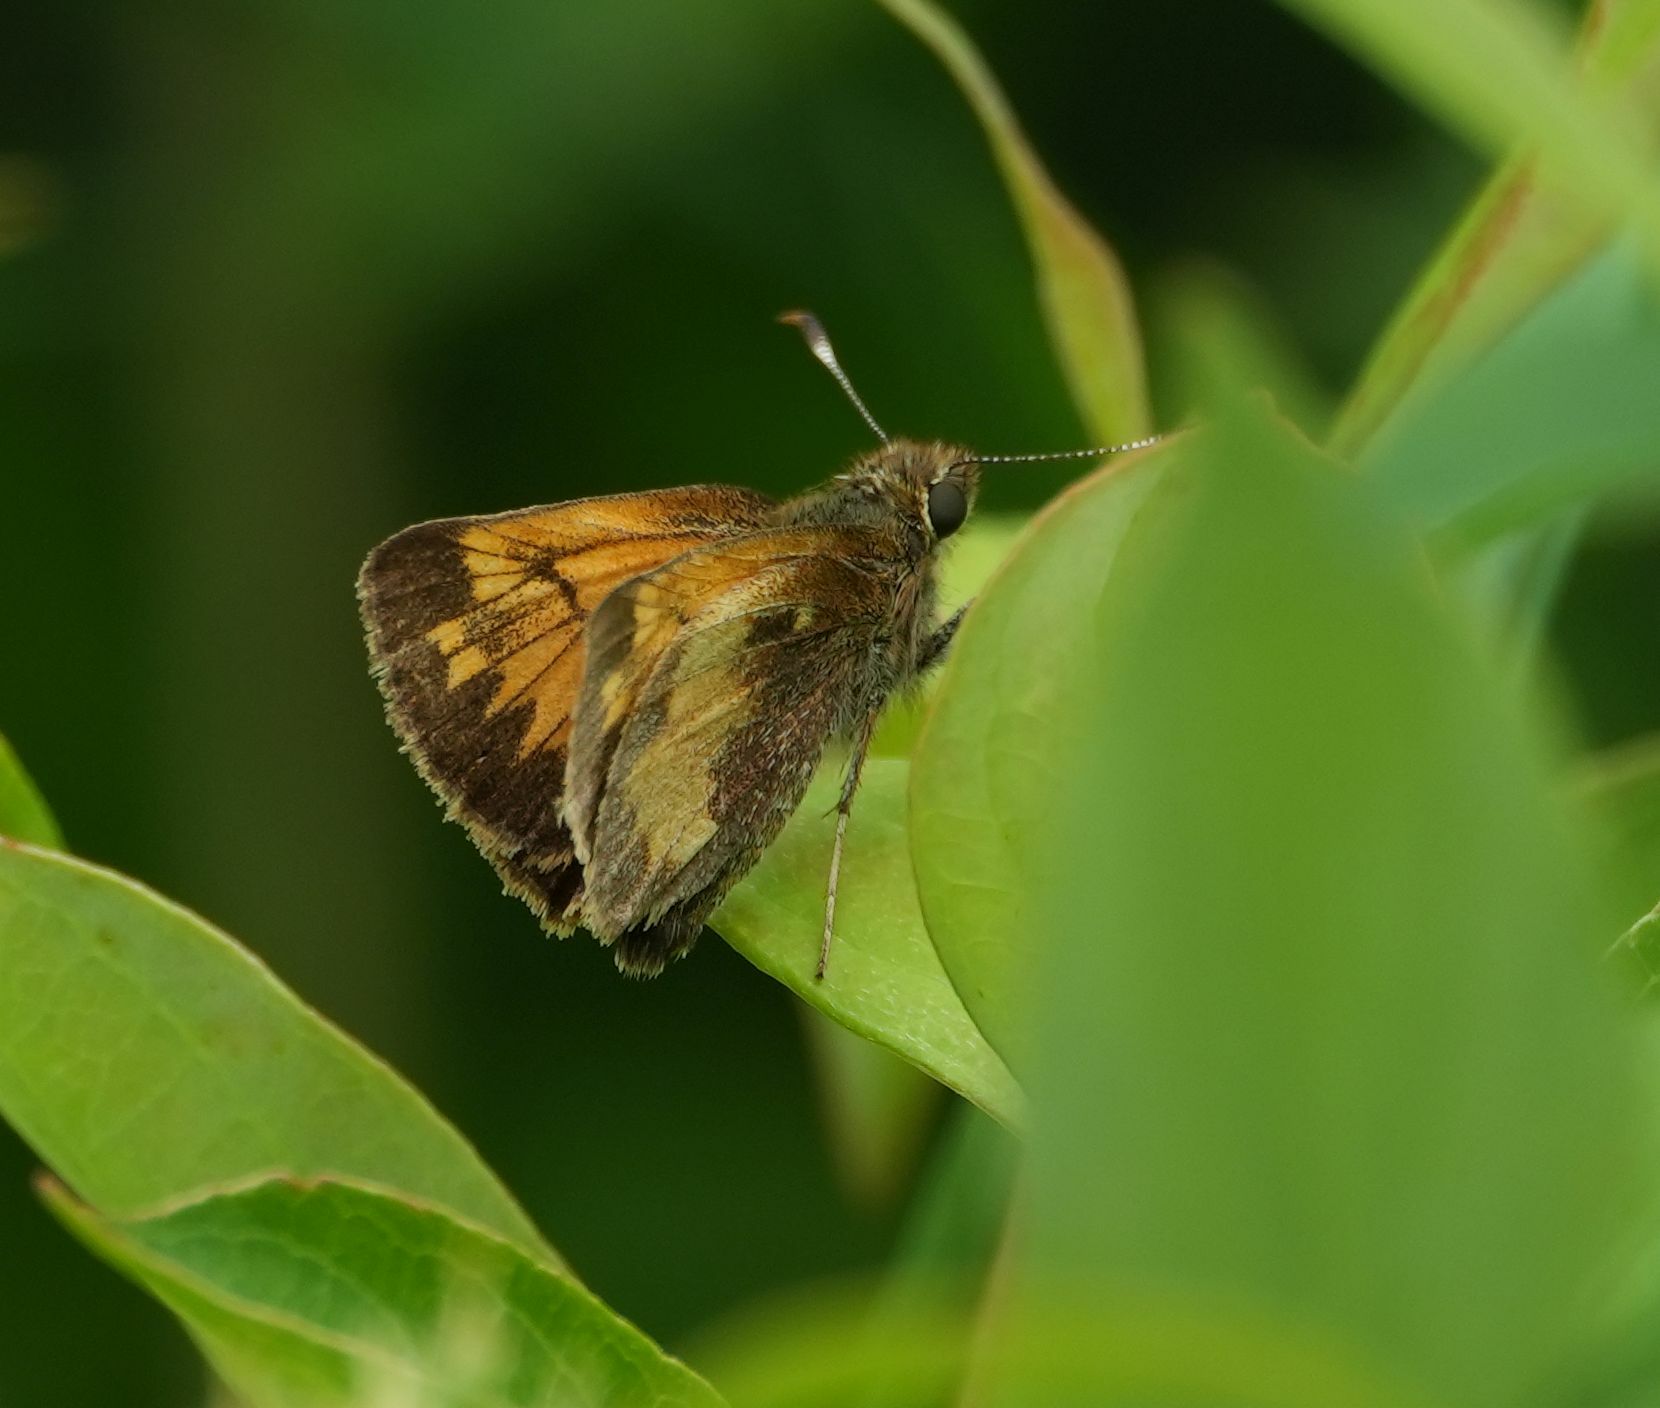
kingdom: Animalia
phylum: Arthropoda
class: Insecta
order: Lepidoptera
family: Hesperiidae
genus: Lon
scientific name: Lon hobomok
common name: Hobomok skipper
